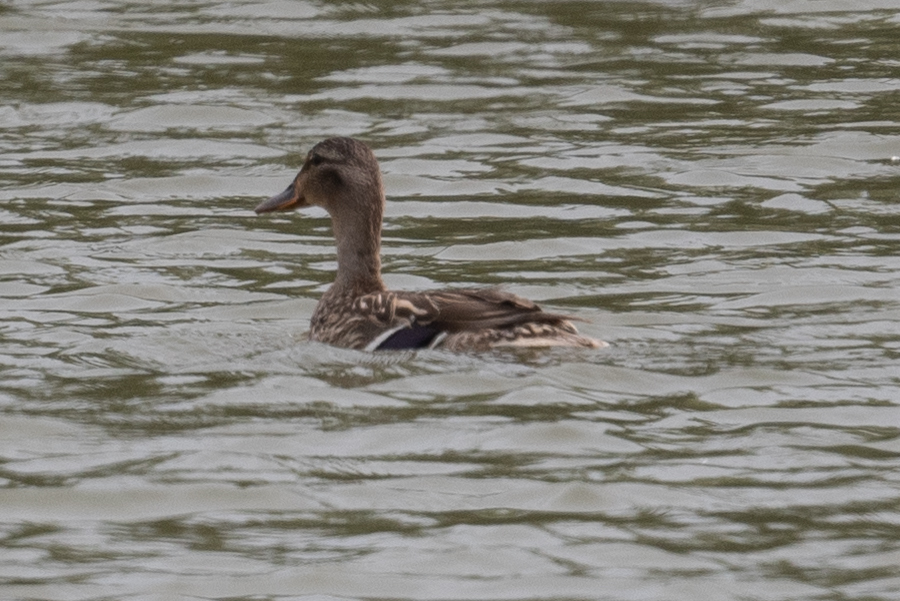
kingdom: Animalia
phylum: Chordata
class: Aves
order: Anseriformes
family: Anatidae
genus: Anas
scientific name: Anas platyrhynchos
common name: Mallard
